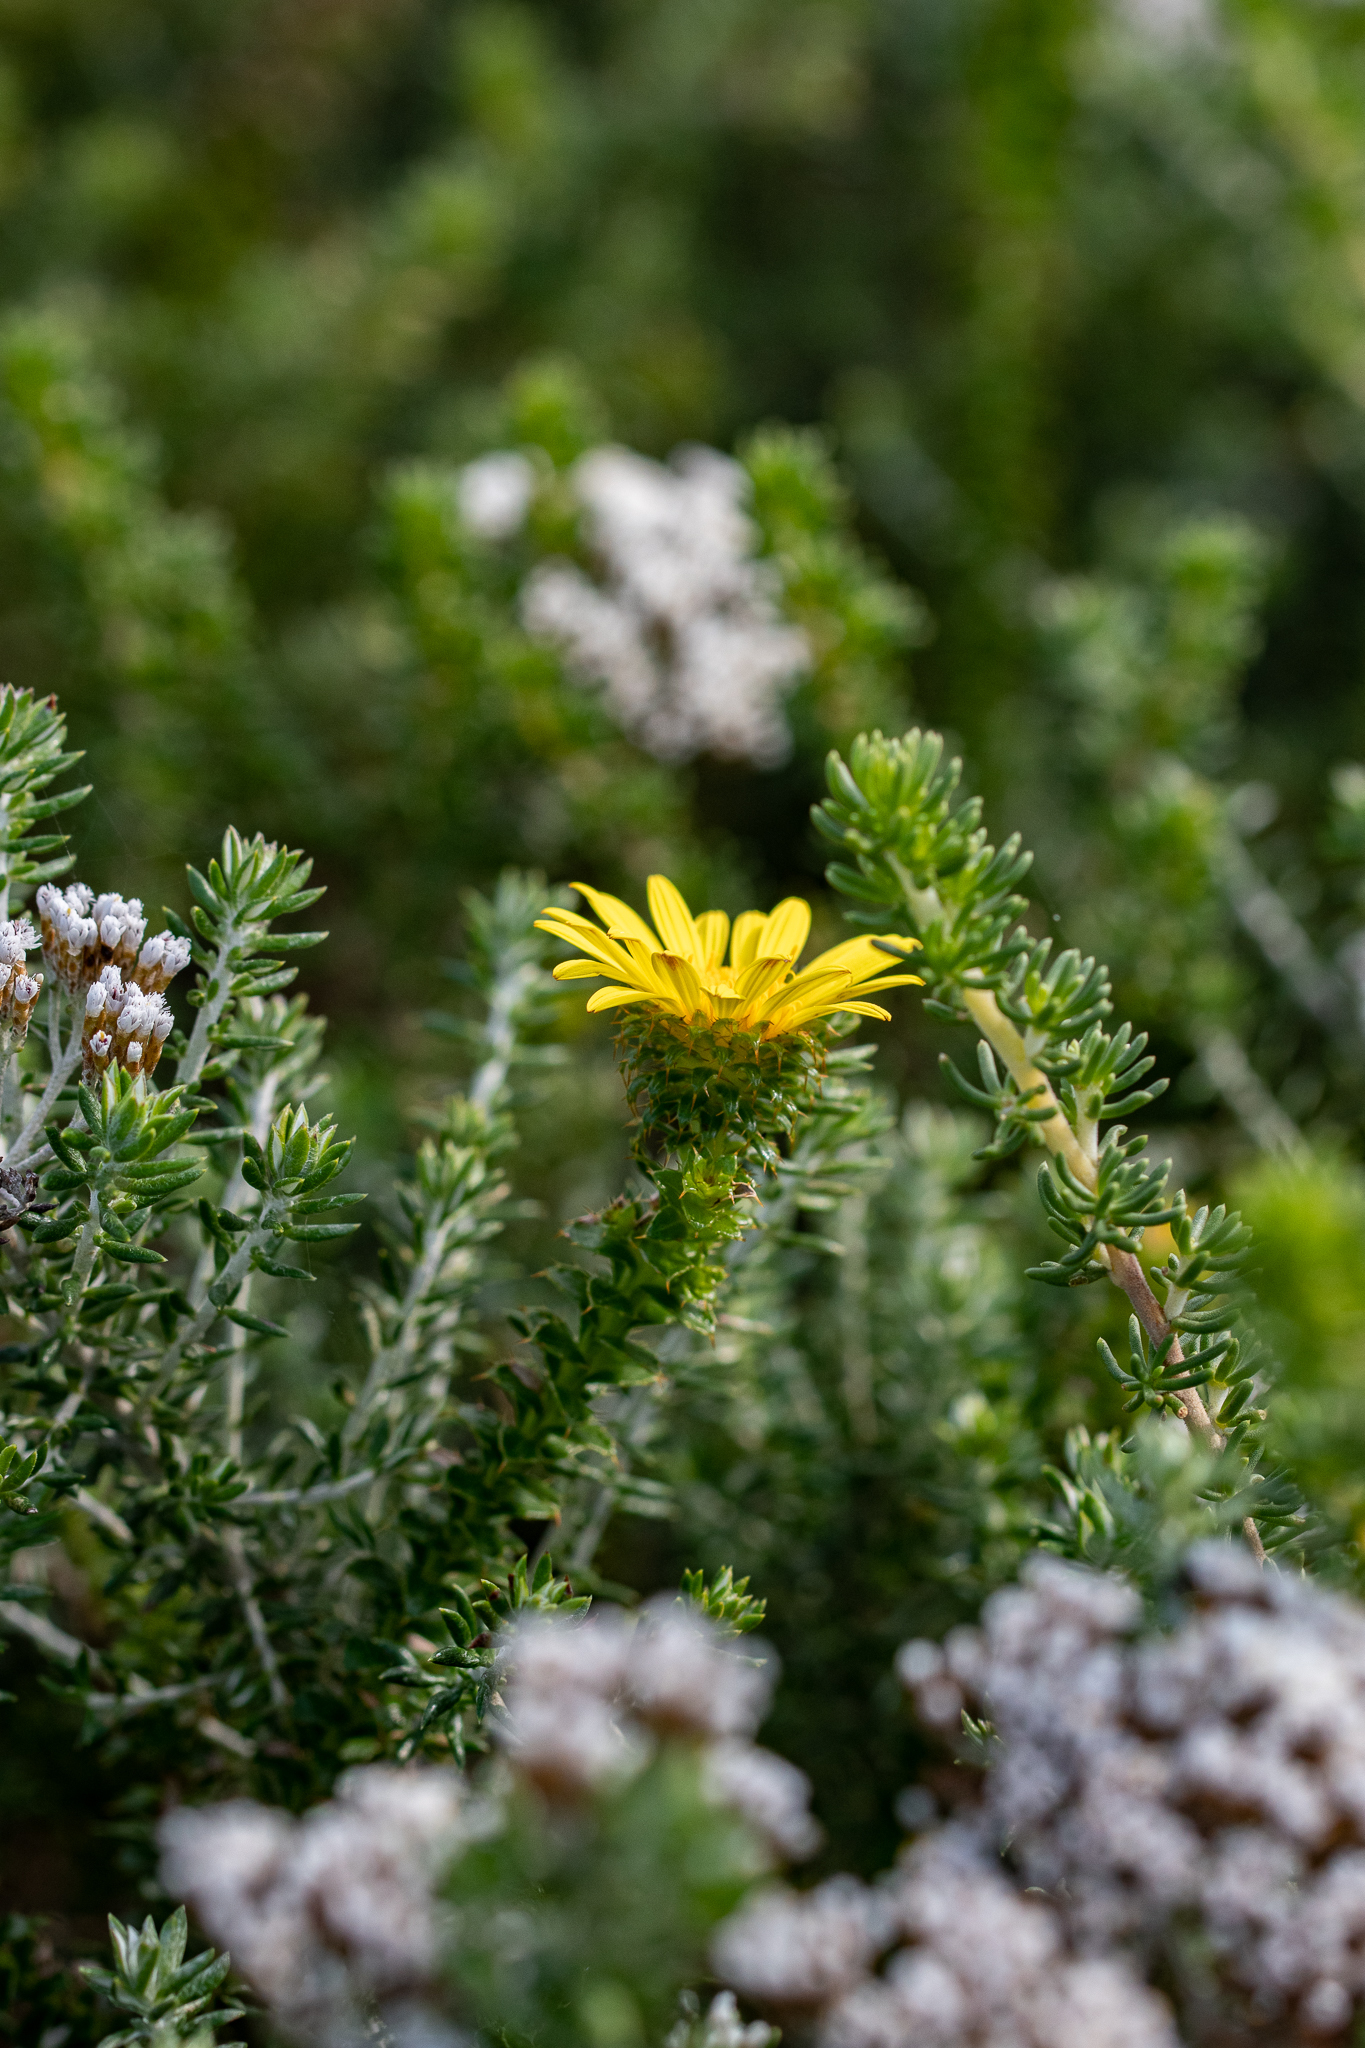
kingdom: Plantae
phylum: Tracheophyta
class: Magnoliopsida
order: Asterales
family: Asteraceae
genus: Cullumia
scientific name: Cullumia setosa
